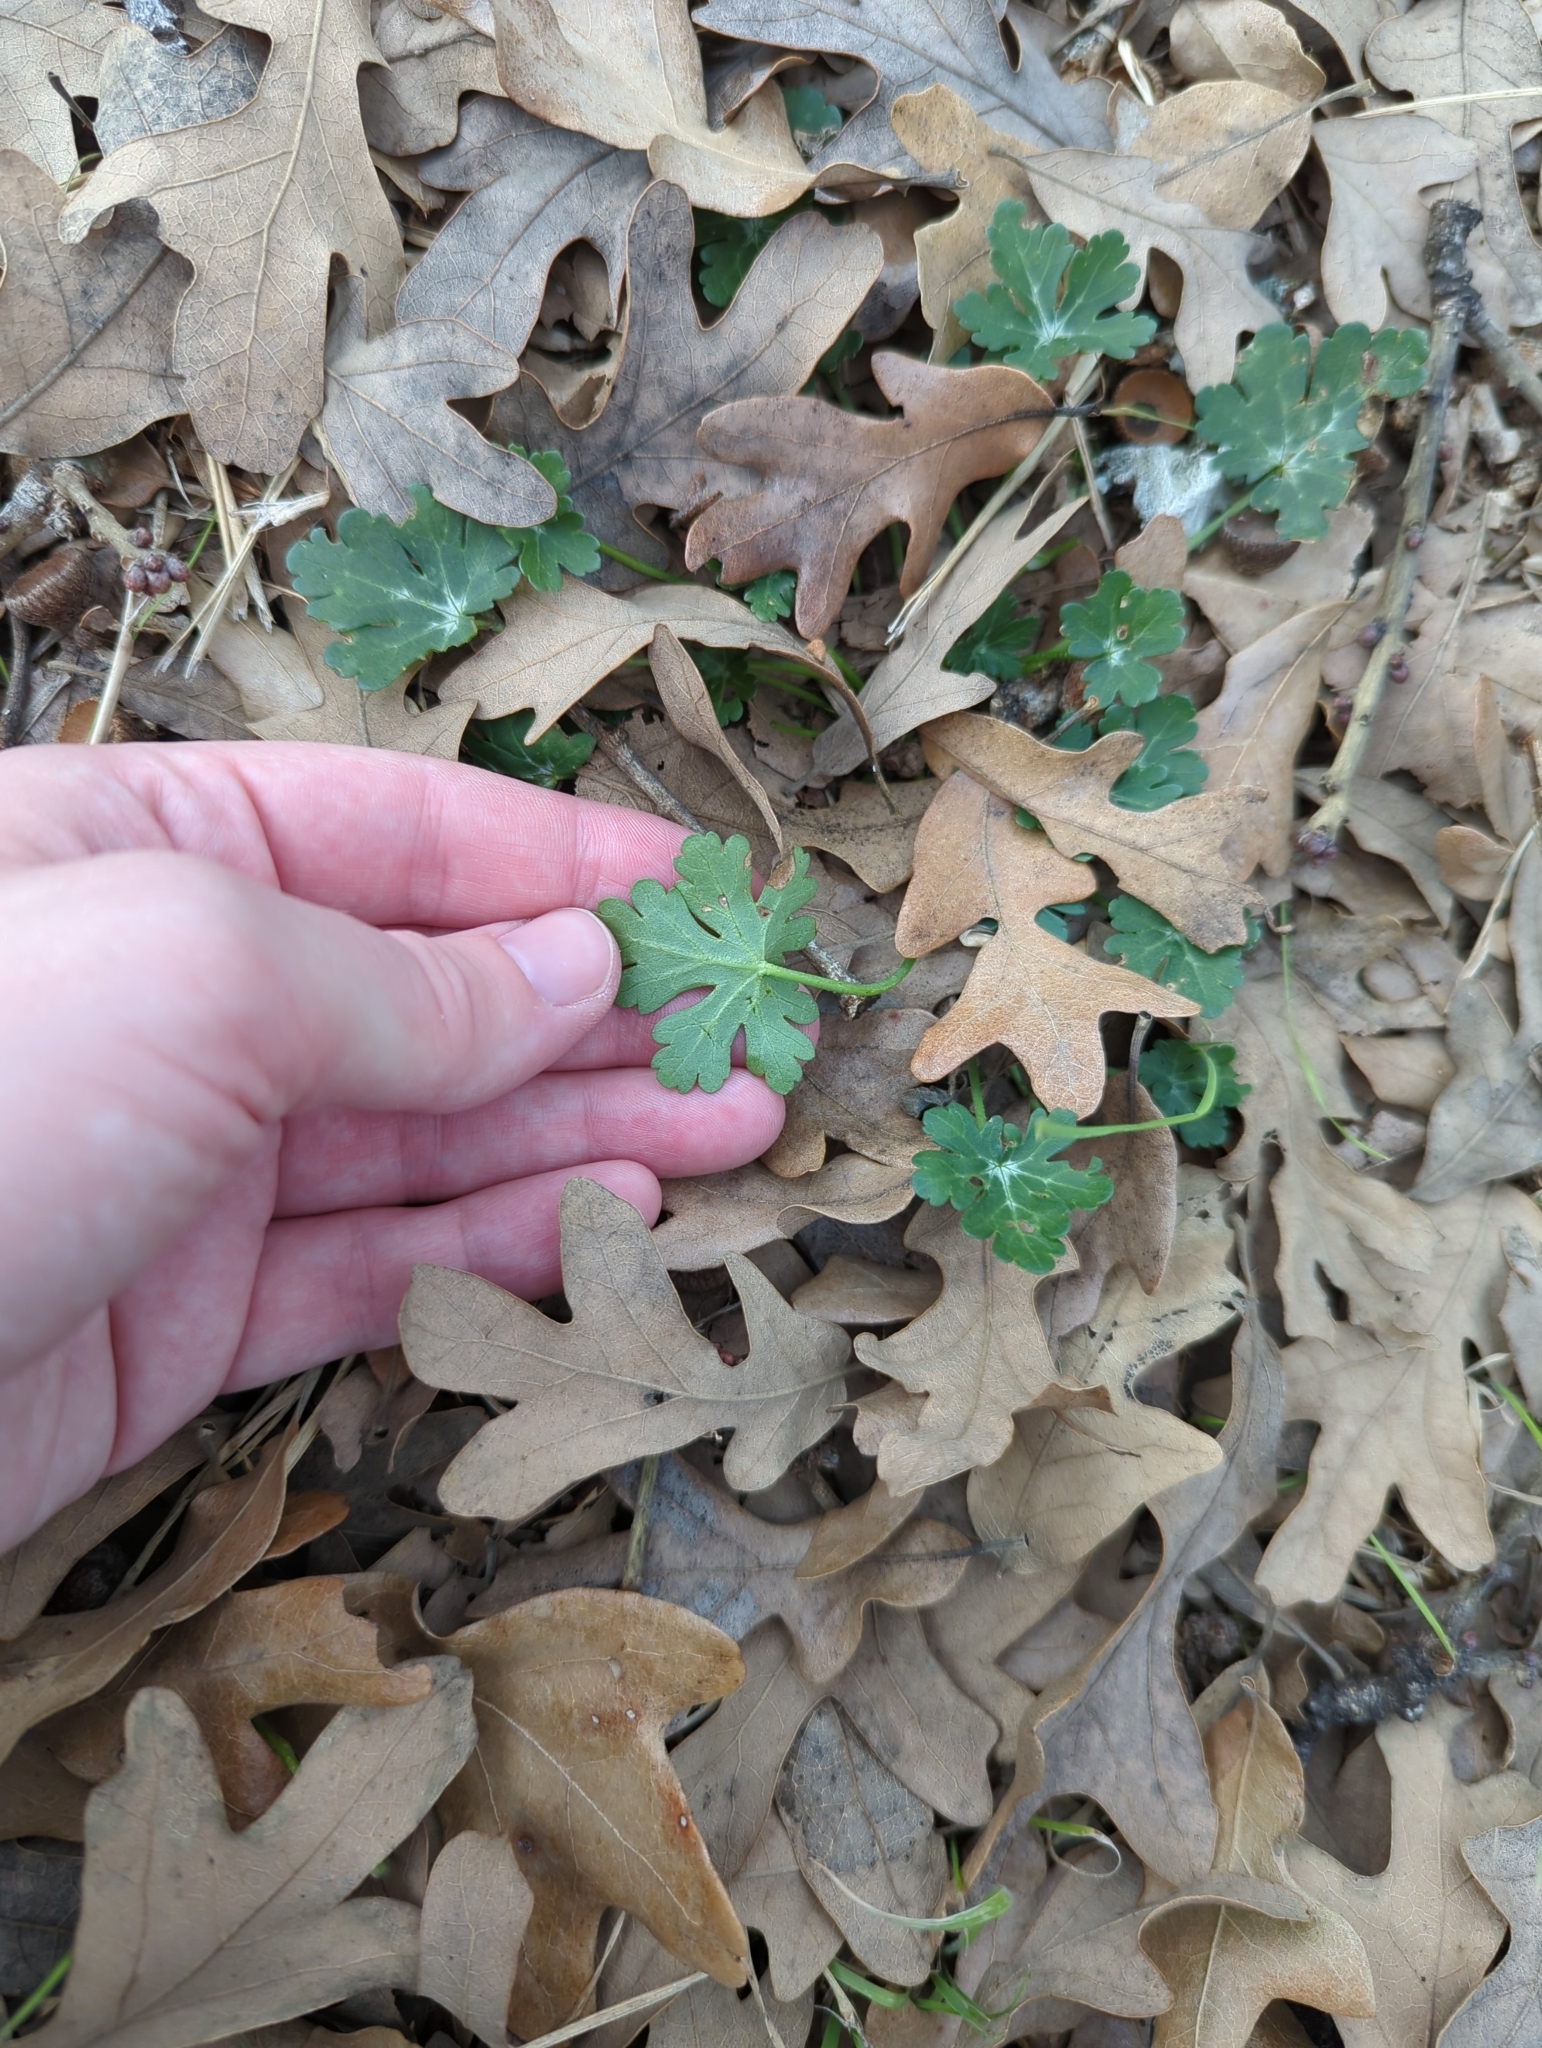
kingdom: Plantae
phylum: Tracheophyta
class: Magnoliopsida
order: Malvales
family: Malvaceae
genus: Callirhoe
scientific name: Callirhoe involucrata
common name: Purple poppy-mallow
